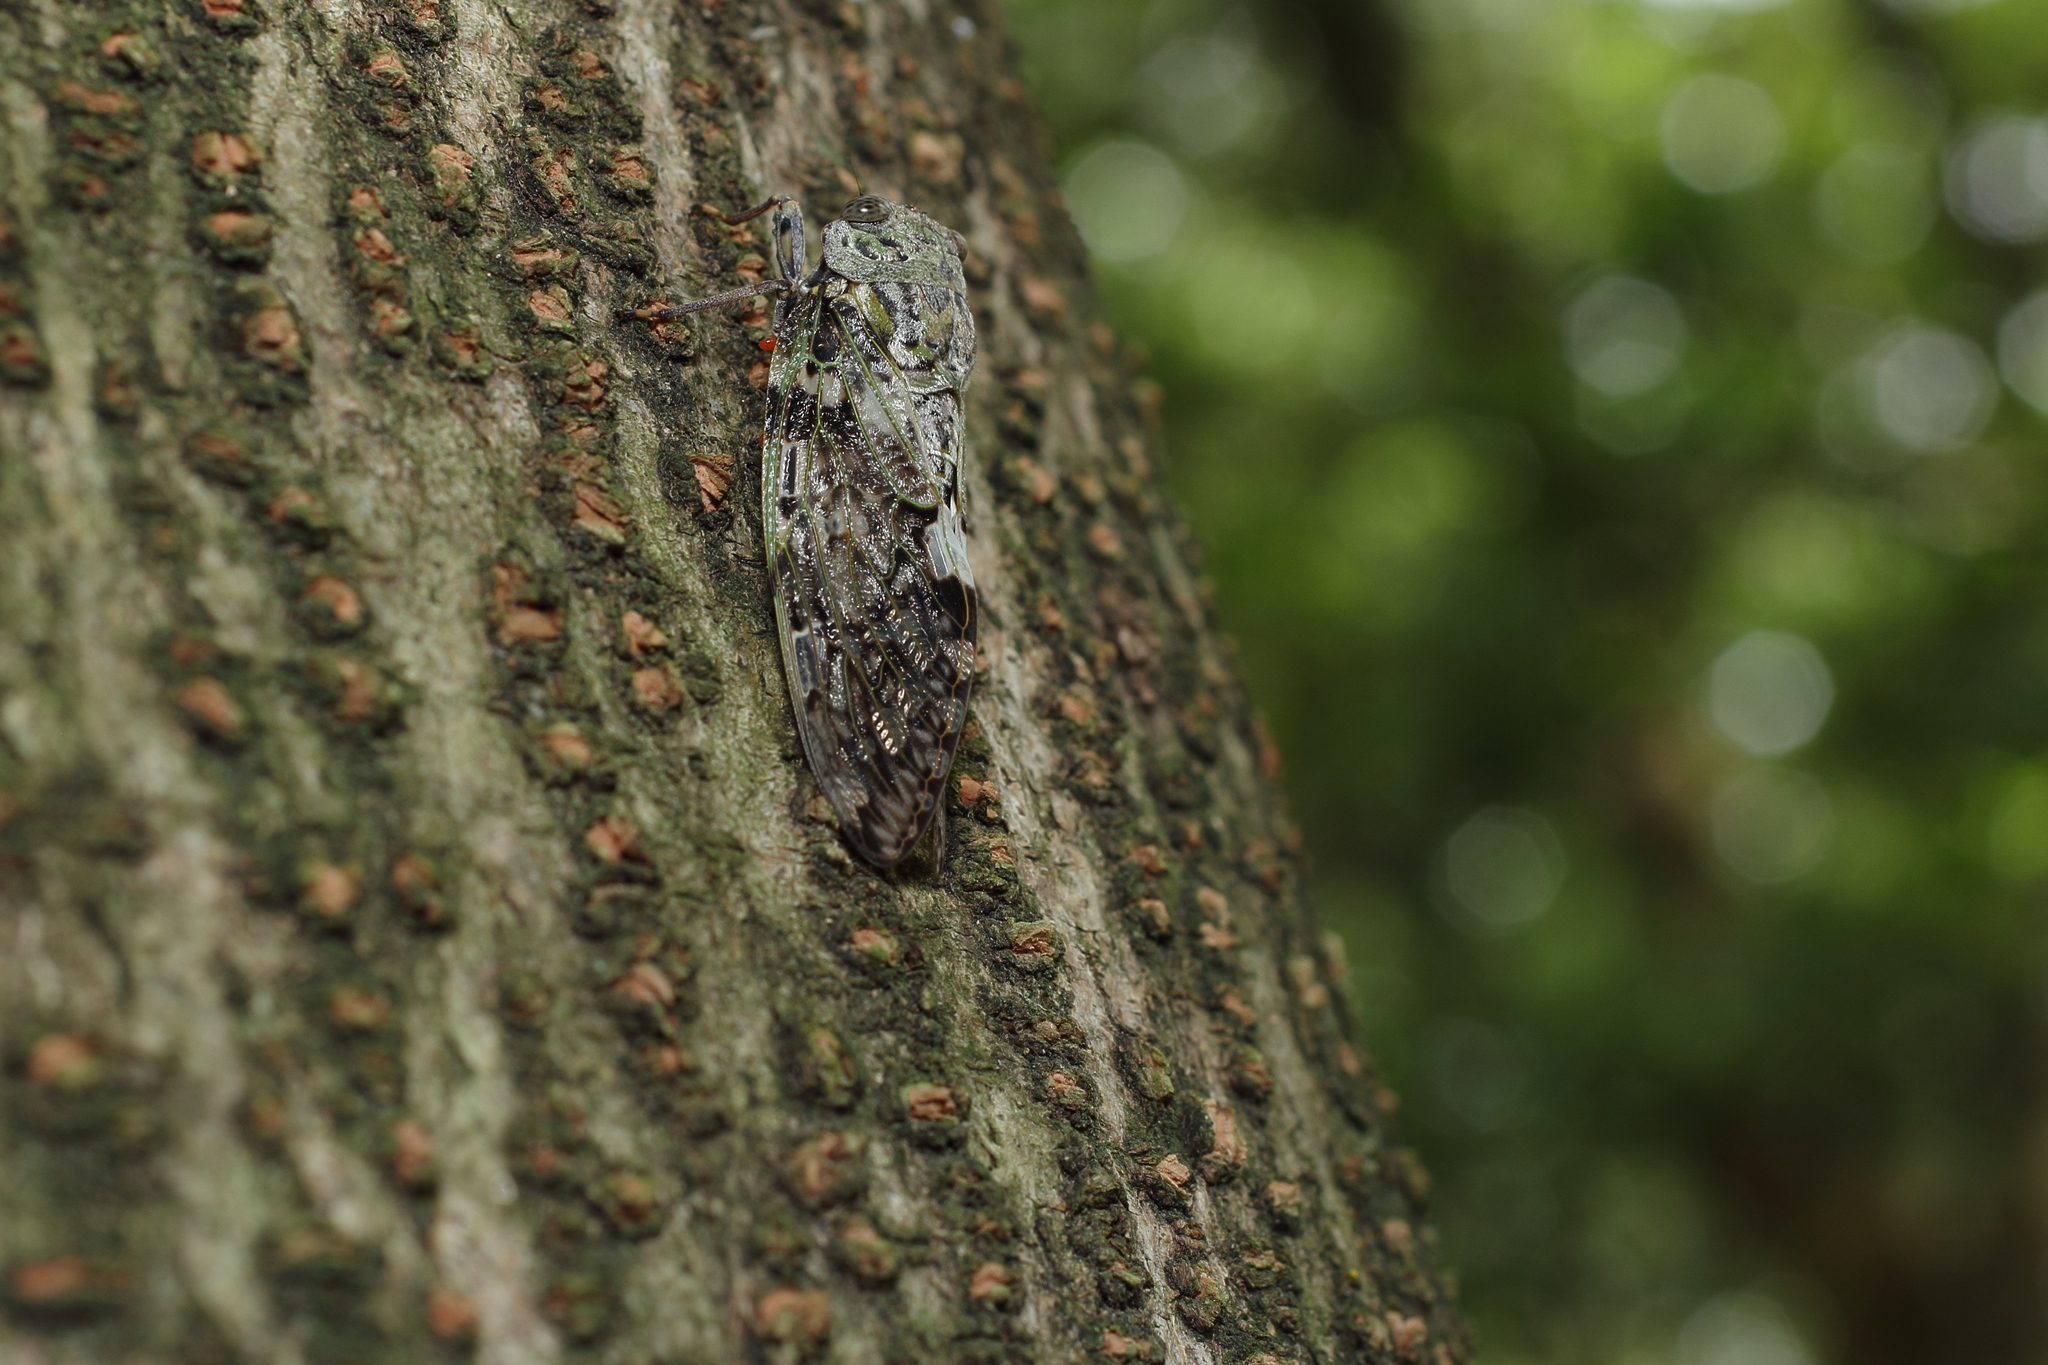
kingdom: Animalia
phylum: Arthropoda
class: Insecta
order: Hemiptera
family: Cicadidae
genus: Platypleura
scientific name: Platypleura kaempferi
